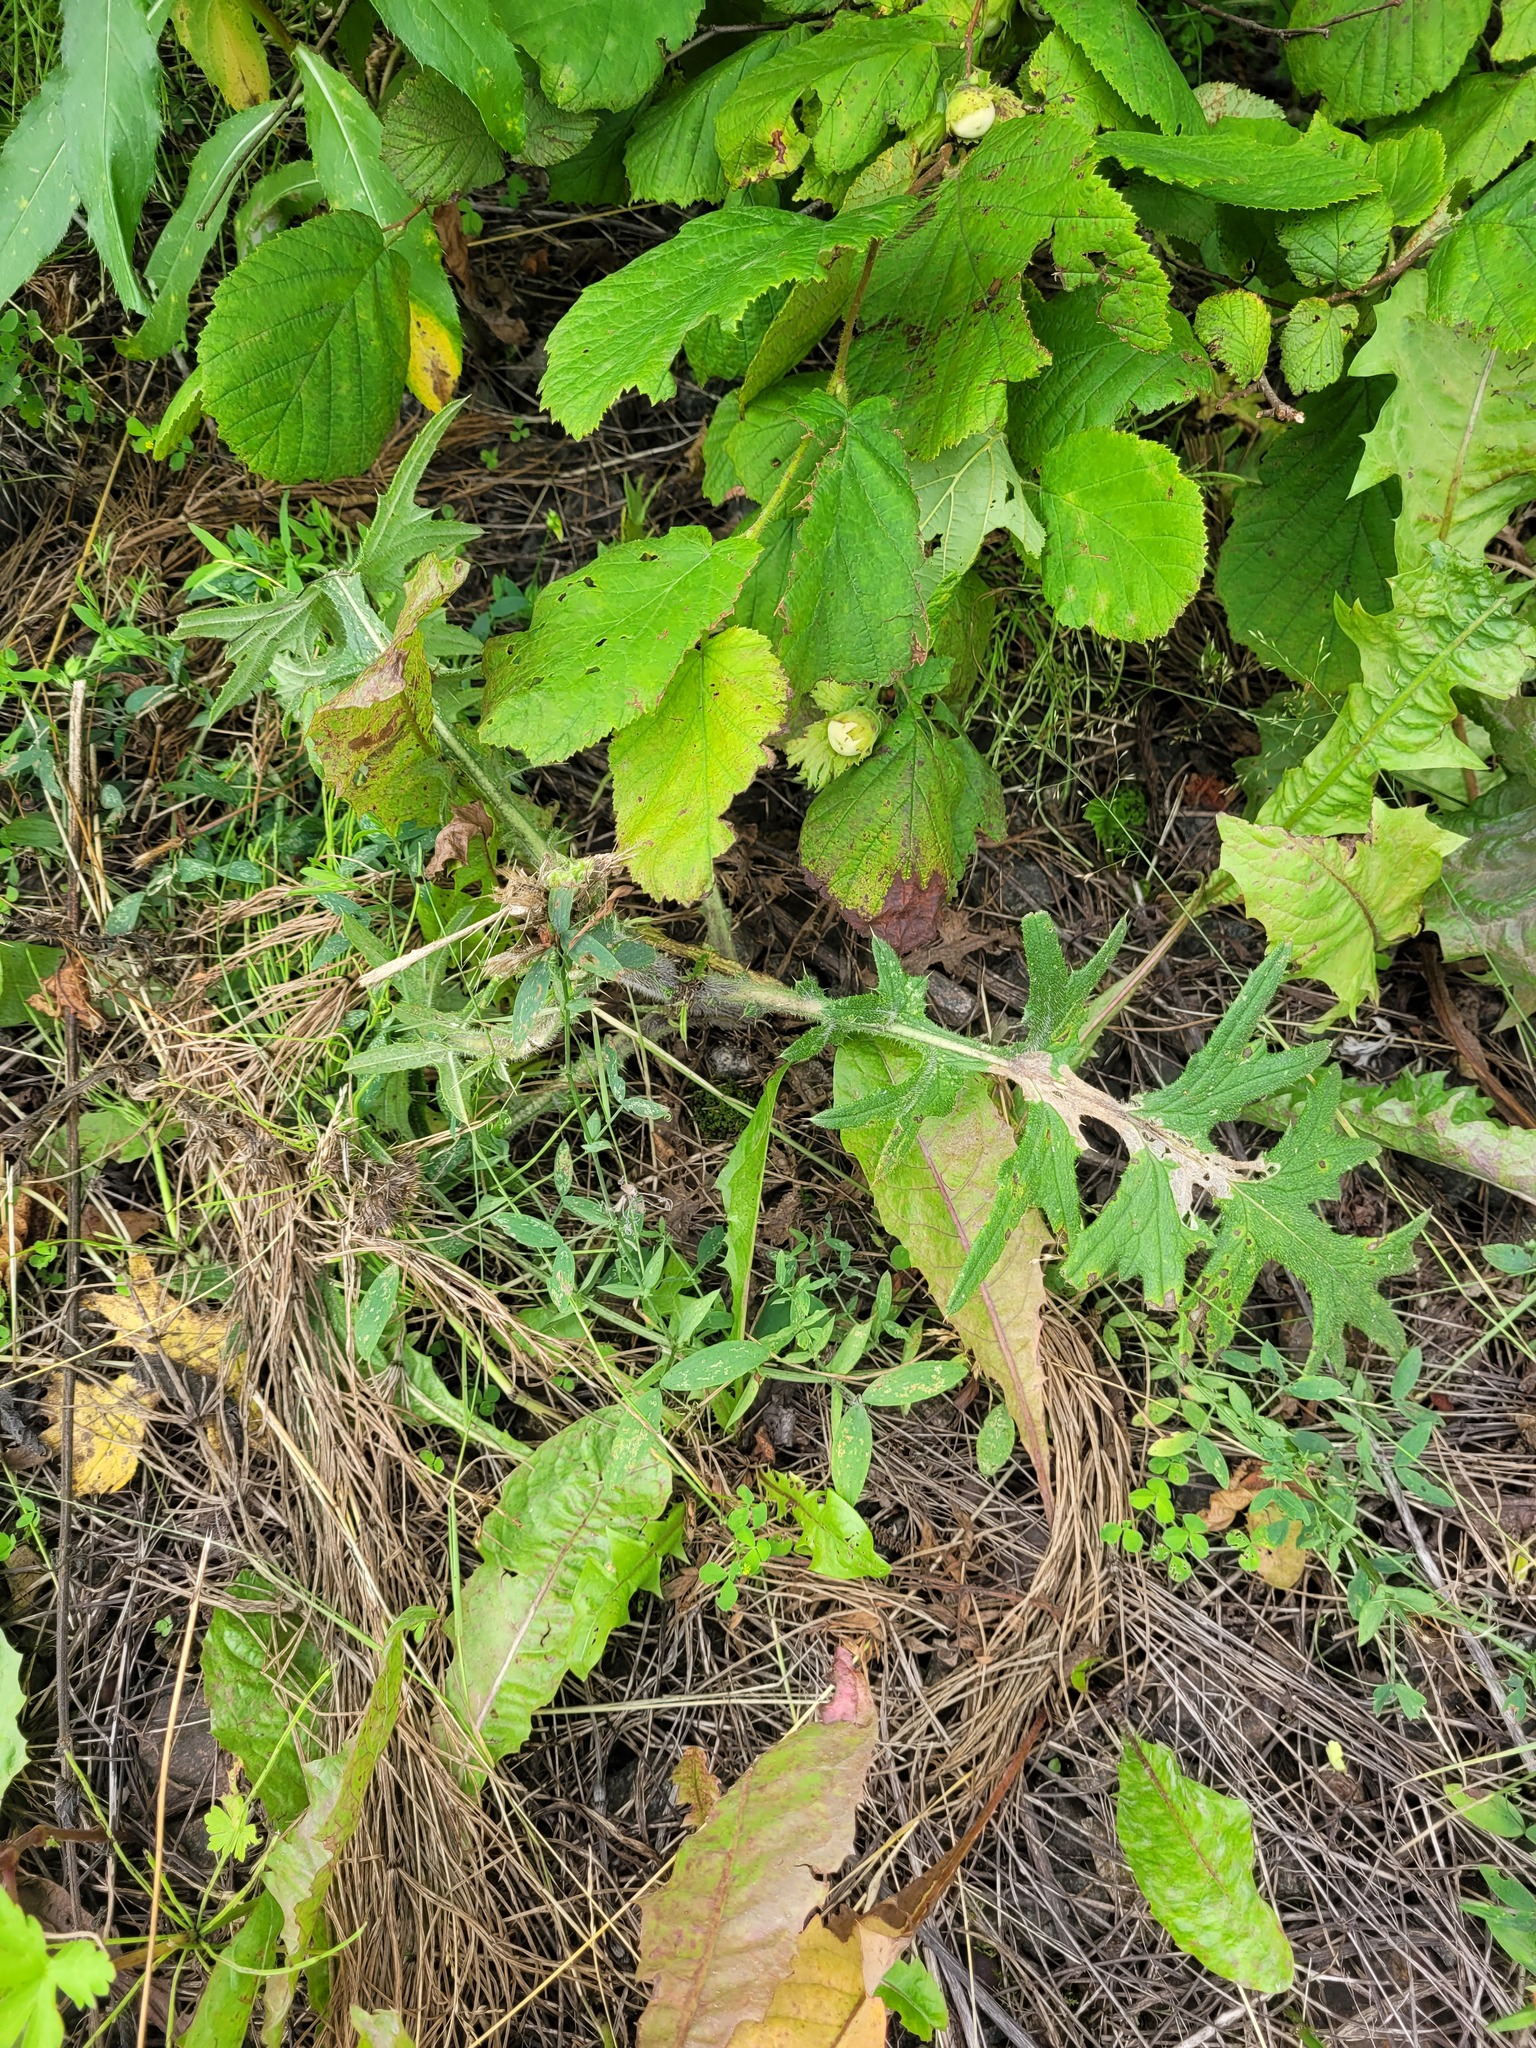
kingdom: Plantae
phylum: Tracheophyta
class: Magnoliopsida
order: Asterales
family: Asteraceae
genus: Cirsium
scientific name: Cirsium vulgare
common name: Bull thistle
